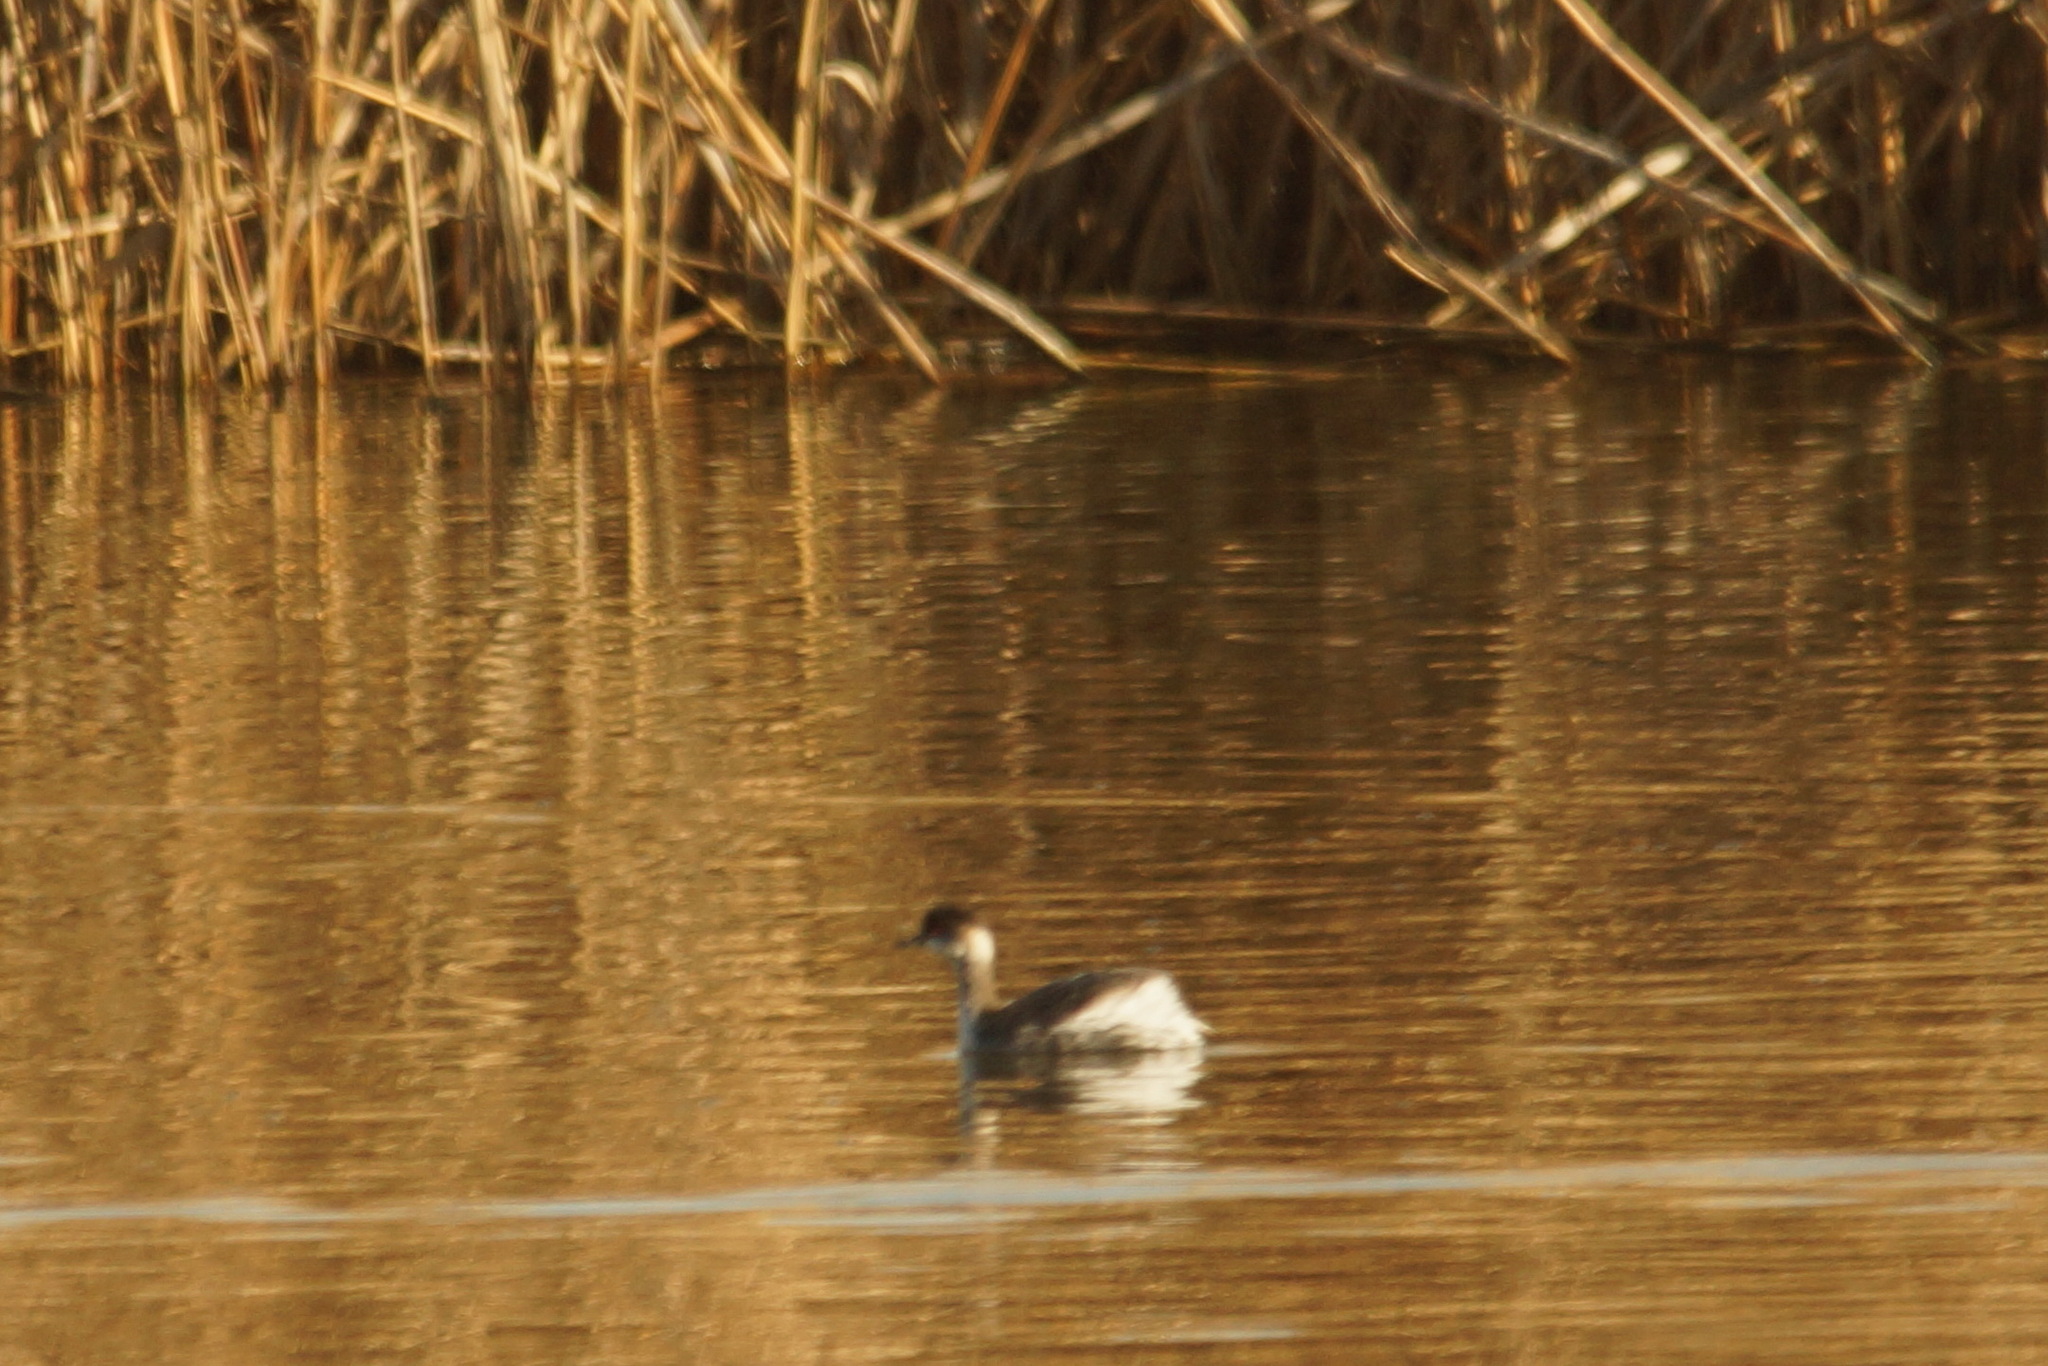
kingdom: Animalia
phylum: Chordata
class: Aves
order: Podicipediformes
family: Podicipedidae
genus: Podiceps
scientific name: Podiceps nigricollis
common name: Black-necked grebe
